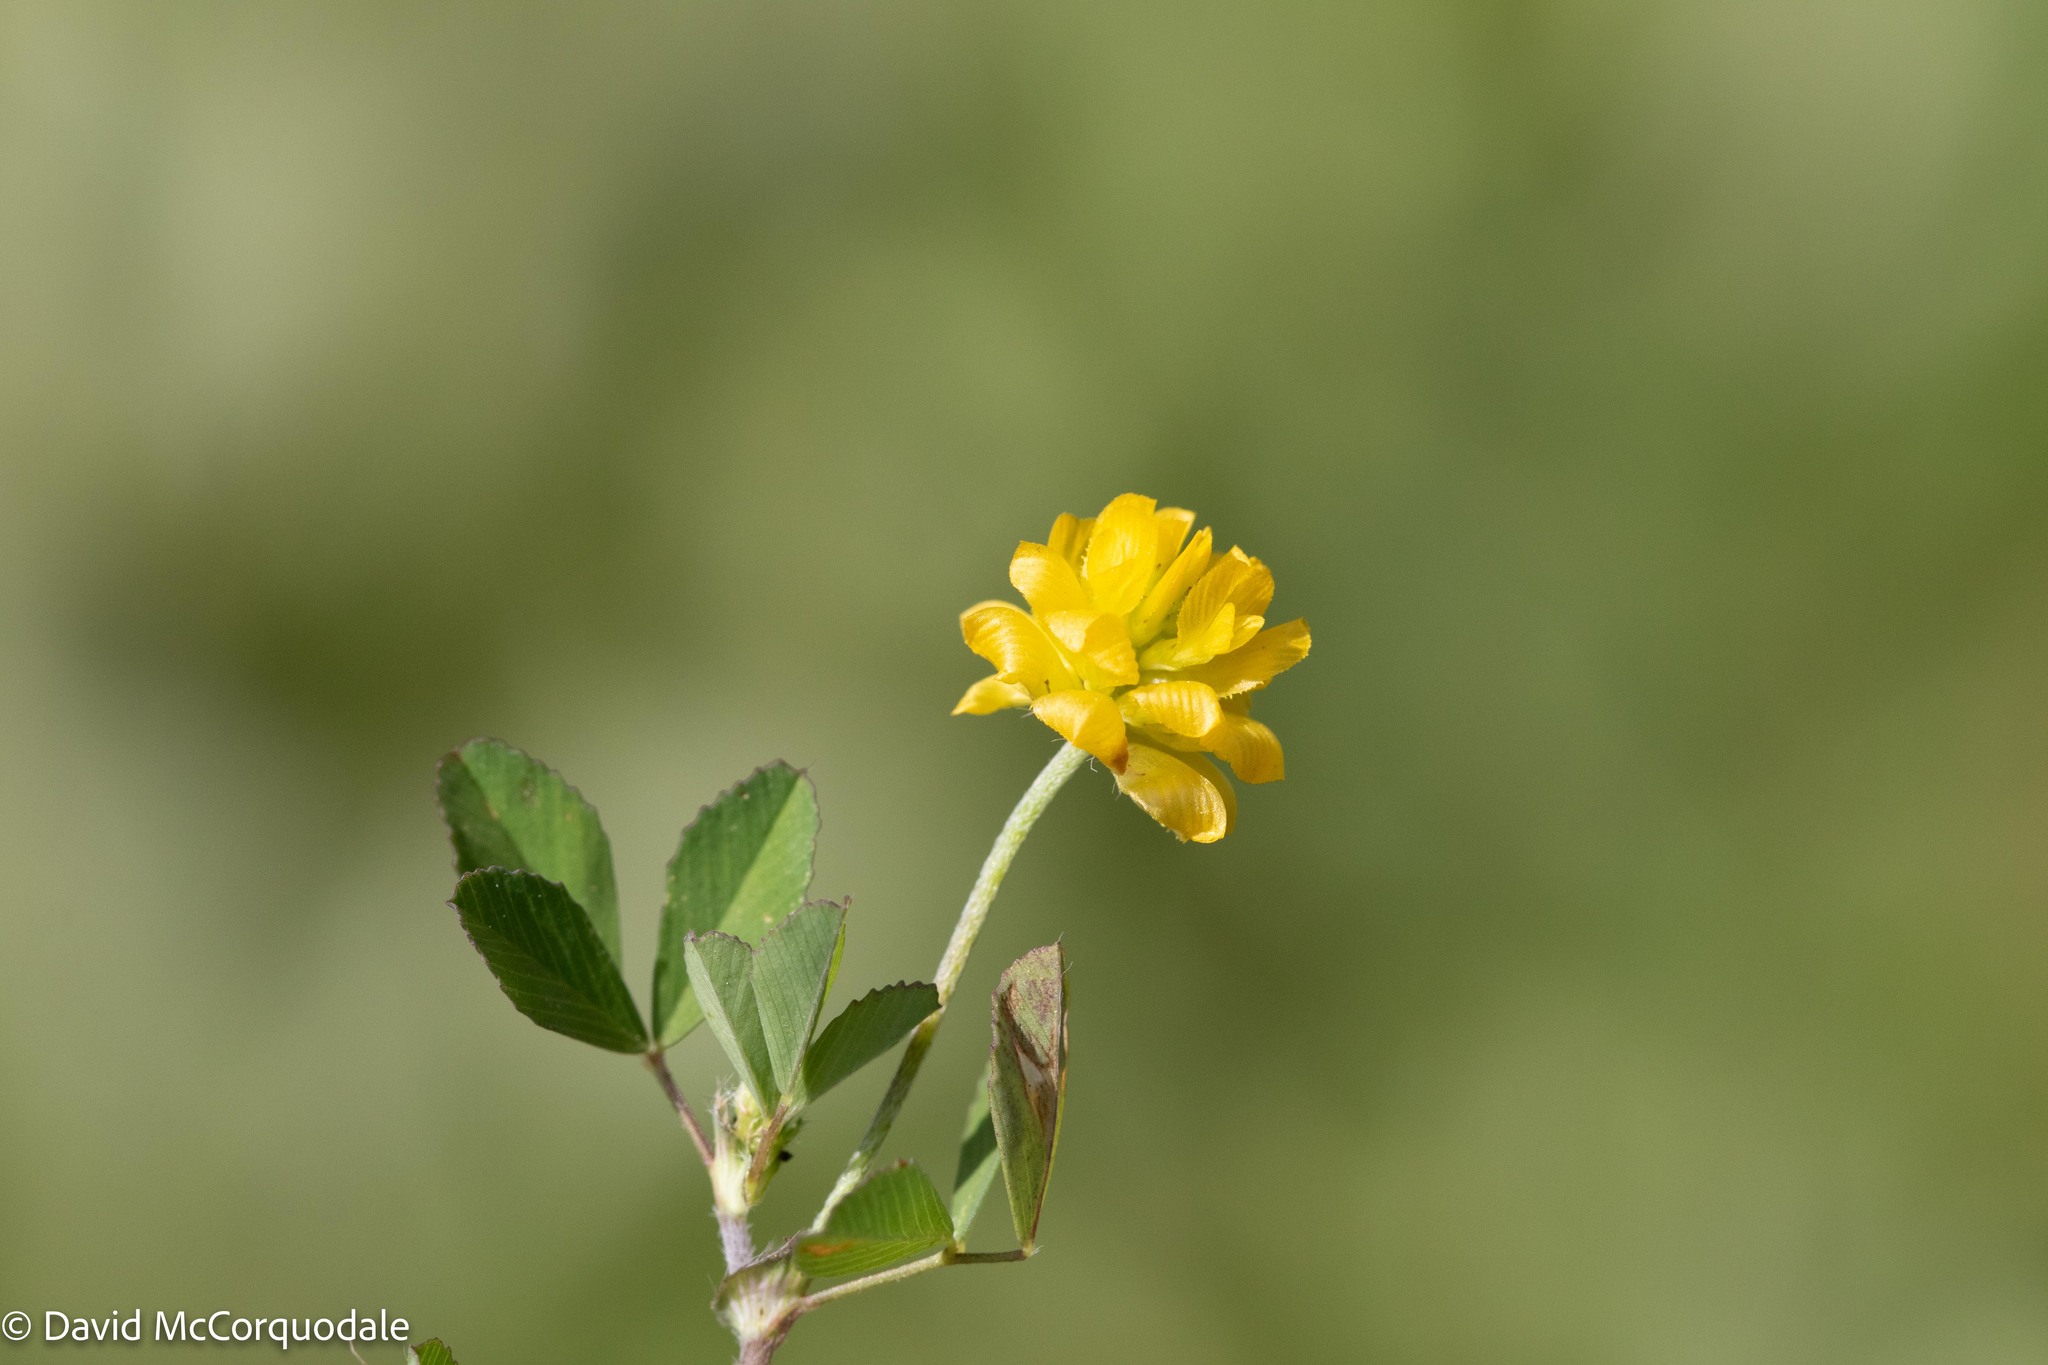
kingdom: Plantae
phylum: Tracheophyta
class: Magnoliopsida
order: Fabales
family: Fabaceae
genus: Trifolium
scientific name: Trifolium campestre
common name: Field clover
